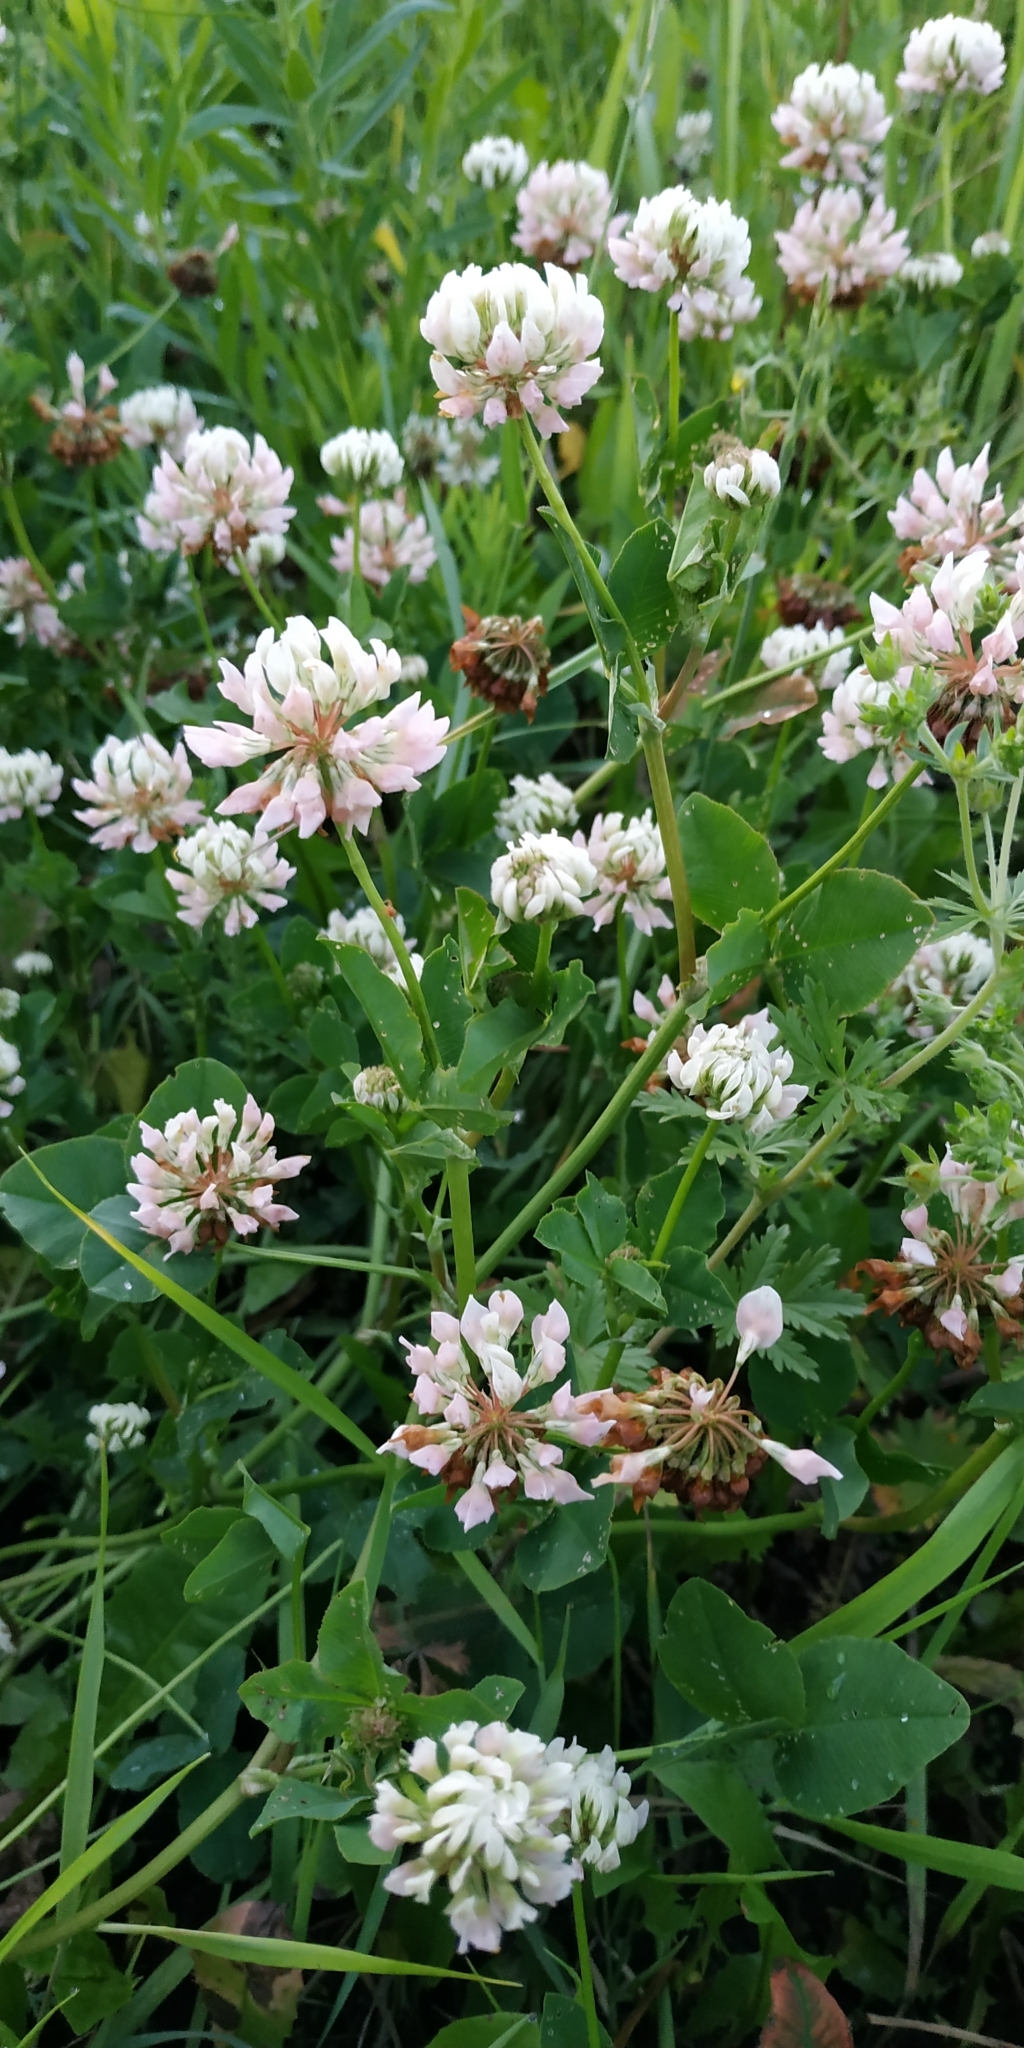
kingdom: Plantae
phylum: Tracheophyta
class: Magnoliopsida
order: Fabales
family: Fabaceae
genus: Trifolium
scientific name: Trifolium hybridum
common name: Alsike clover
